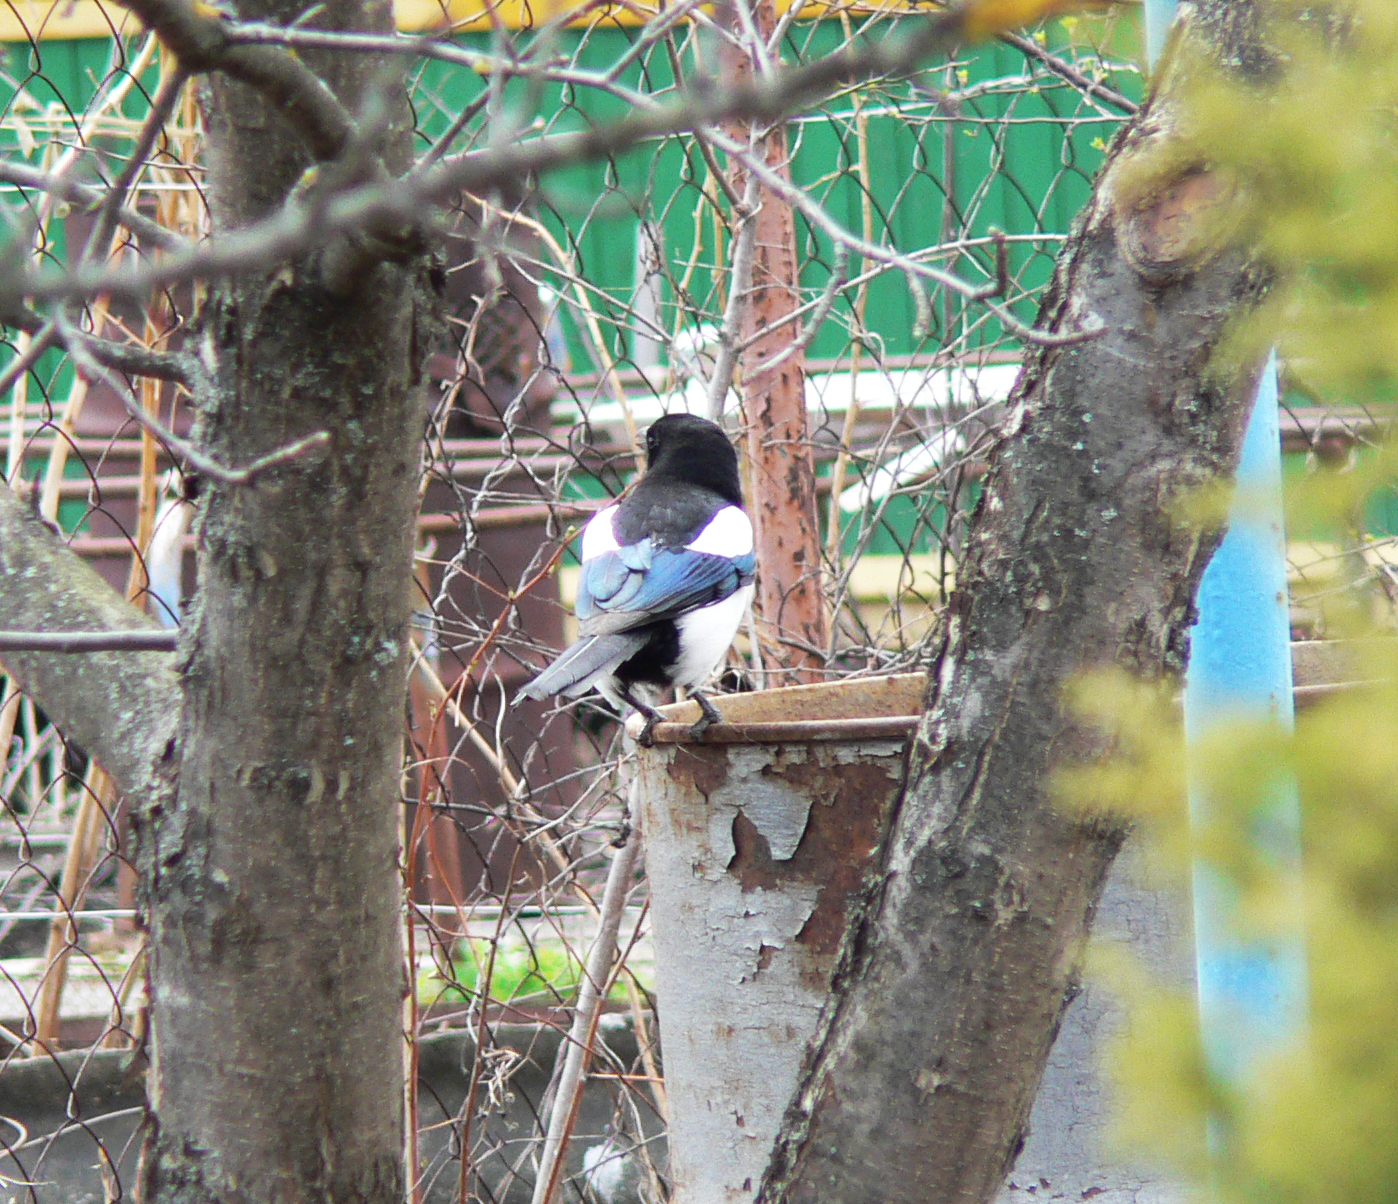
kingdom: Animalia
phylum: Chordata
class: Aves
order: Passeriformes
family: Corvidae
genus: Pica
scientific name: Pica pica
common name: Eurasian magpie
